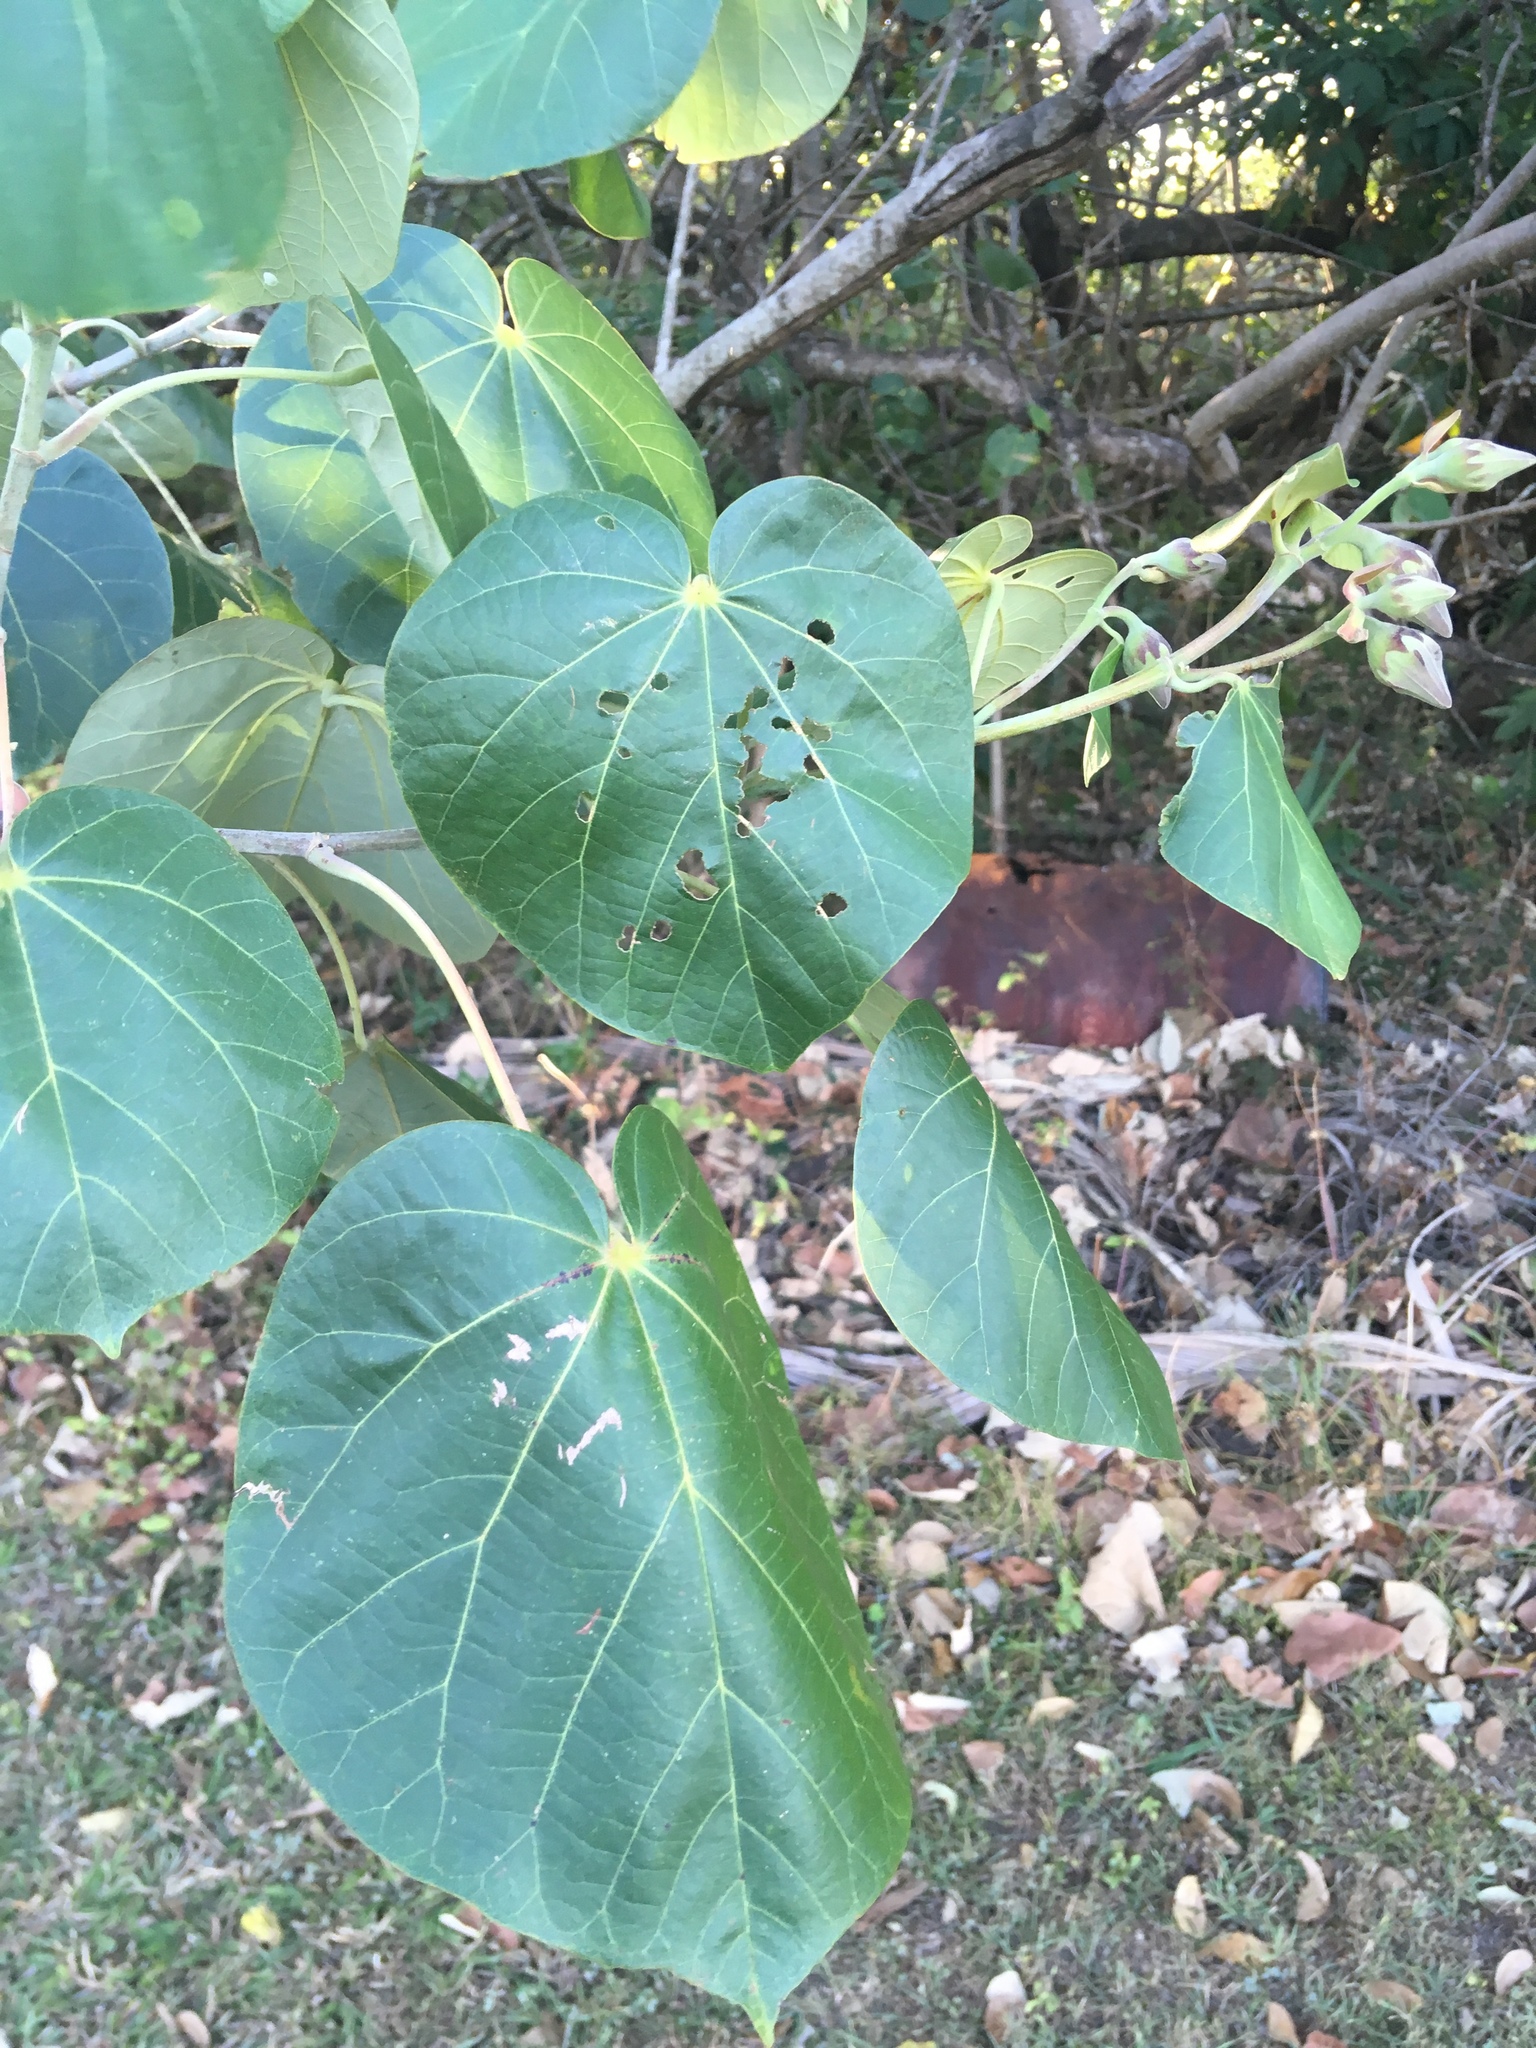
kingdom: Plantae
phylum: Tracheophyta
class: Magnoliopsida
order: Malvales
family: Malvaceae
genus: Talipariti
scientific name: Talipariti tiliaceum
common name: Sea hibiscus
